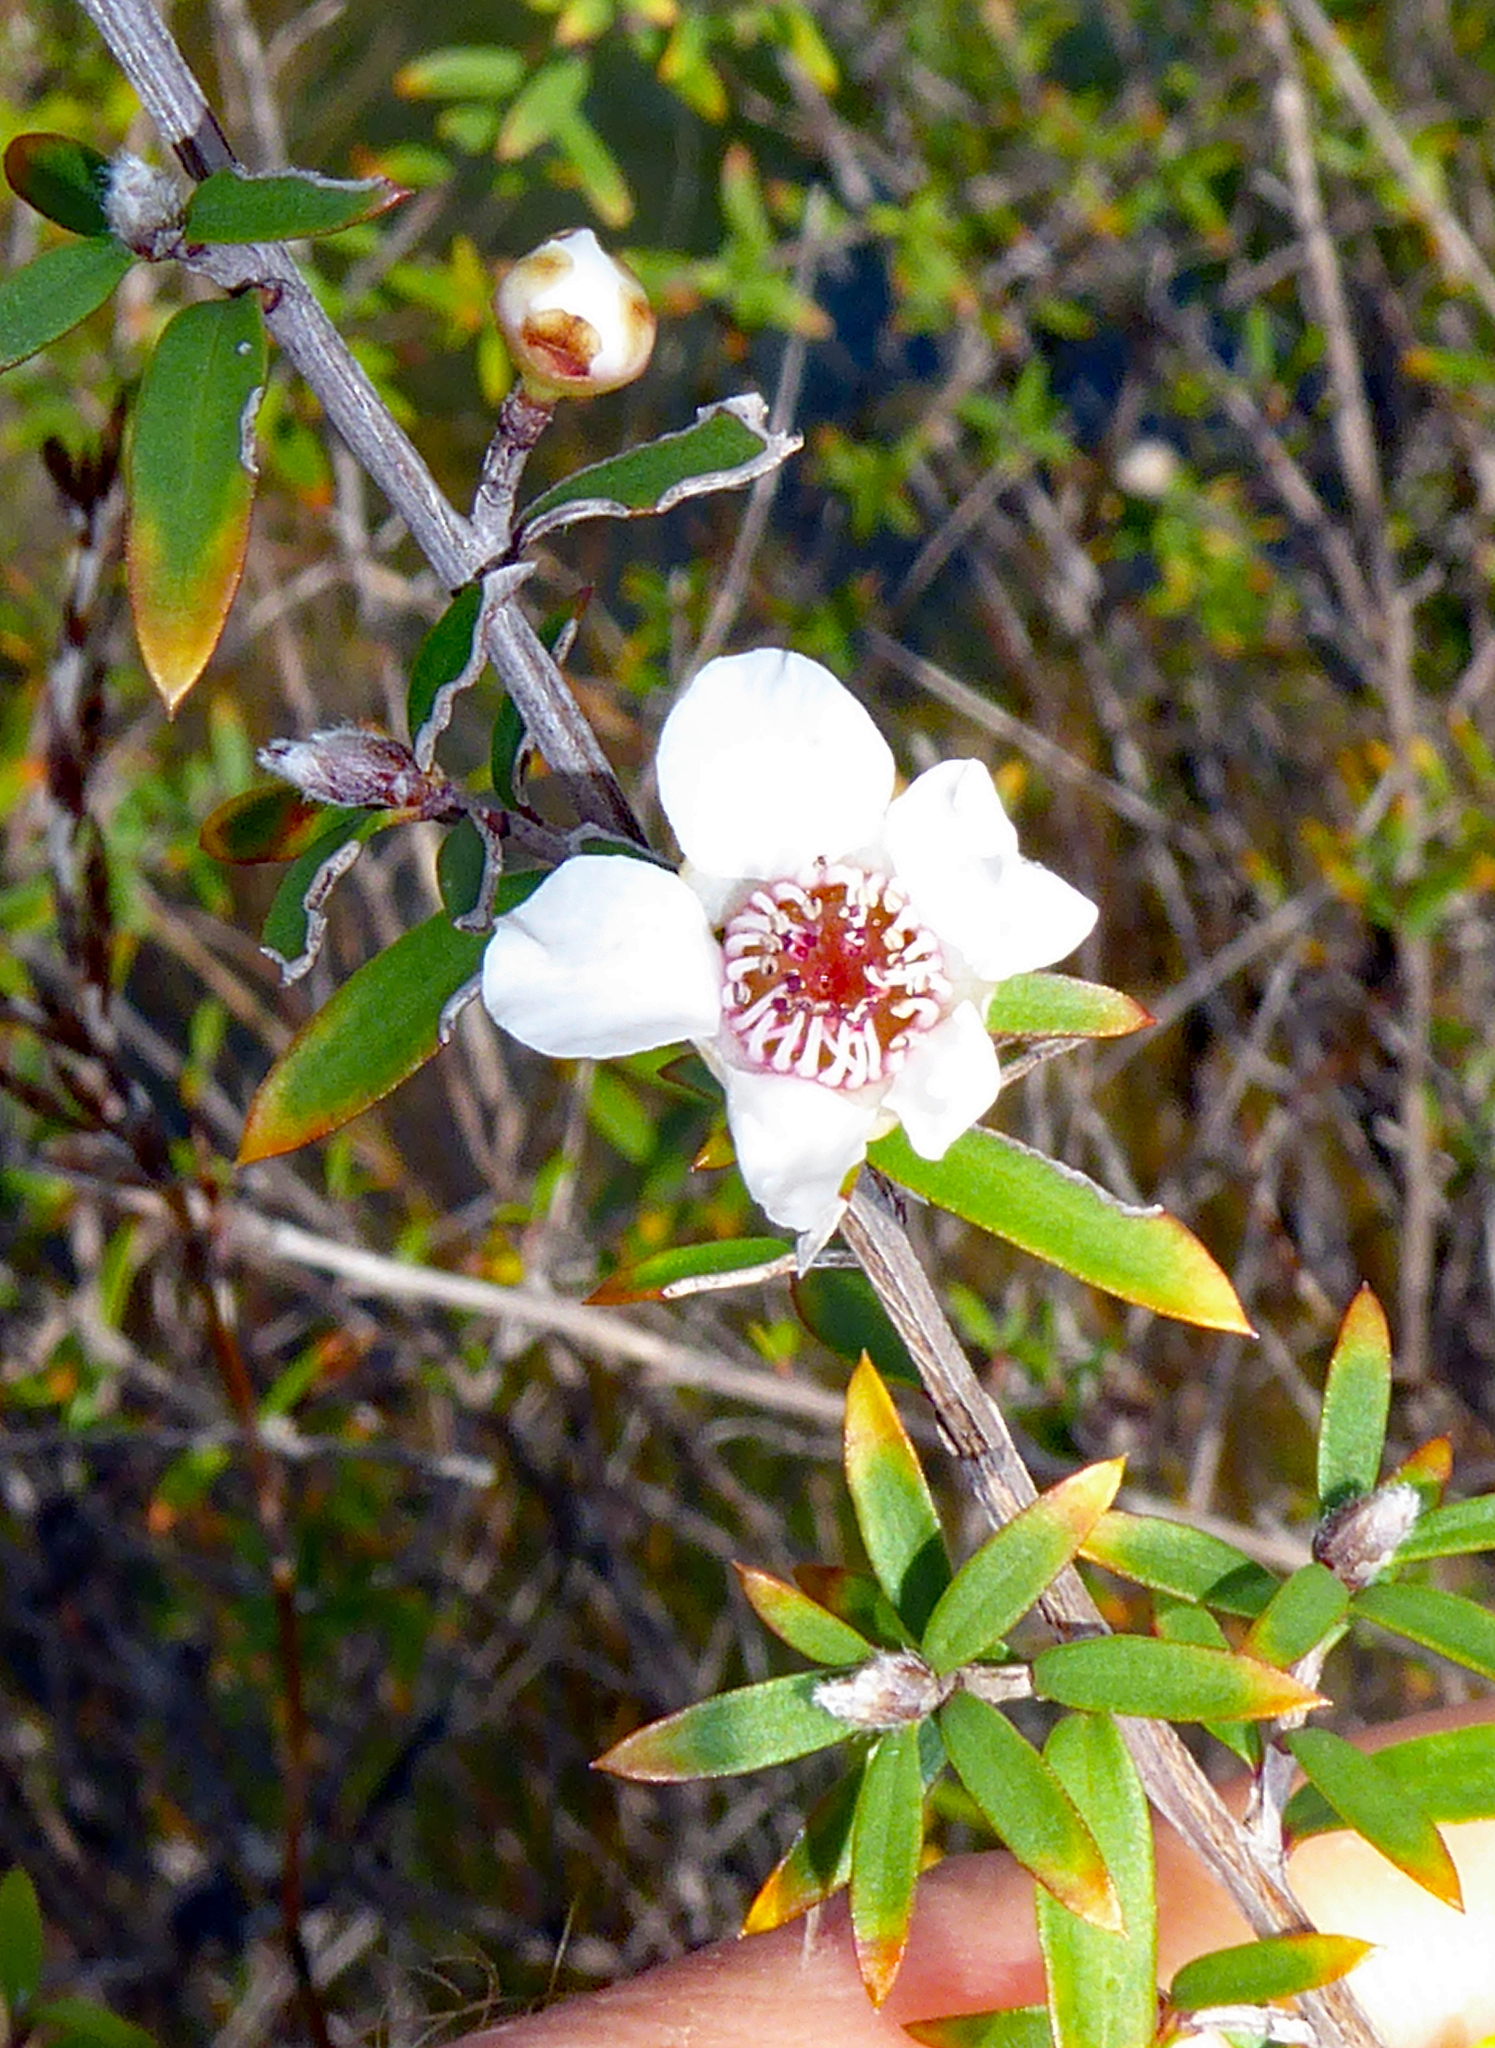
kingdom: Plantae
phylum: Tracheophyta
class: Magnoliopsida
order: Myrtales
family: Myrtaceae
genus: Leptospermum
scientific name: Leptospermum scoparium
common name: Broom tea-tree
